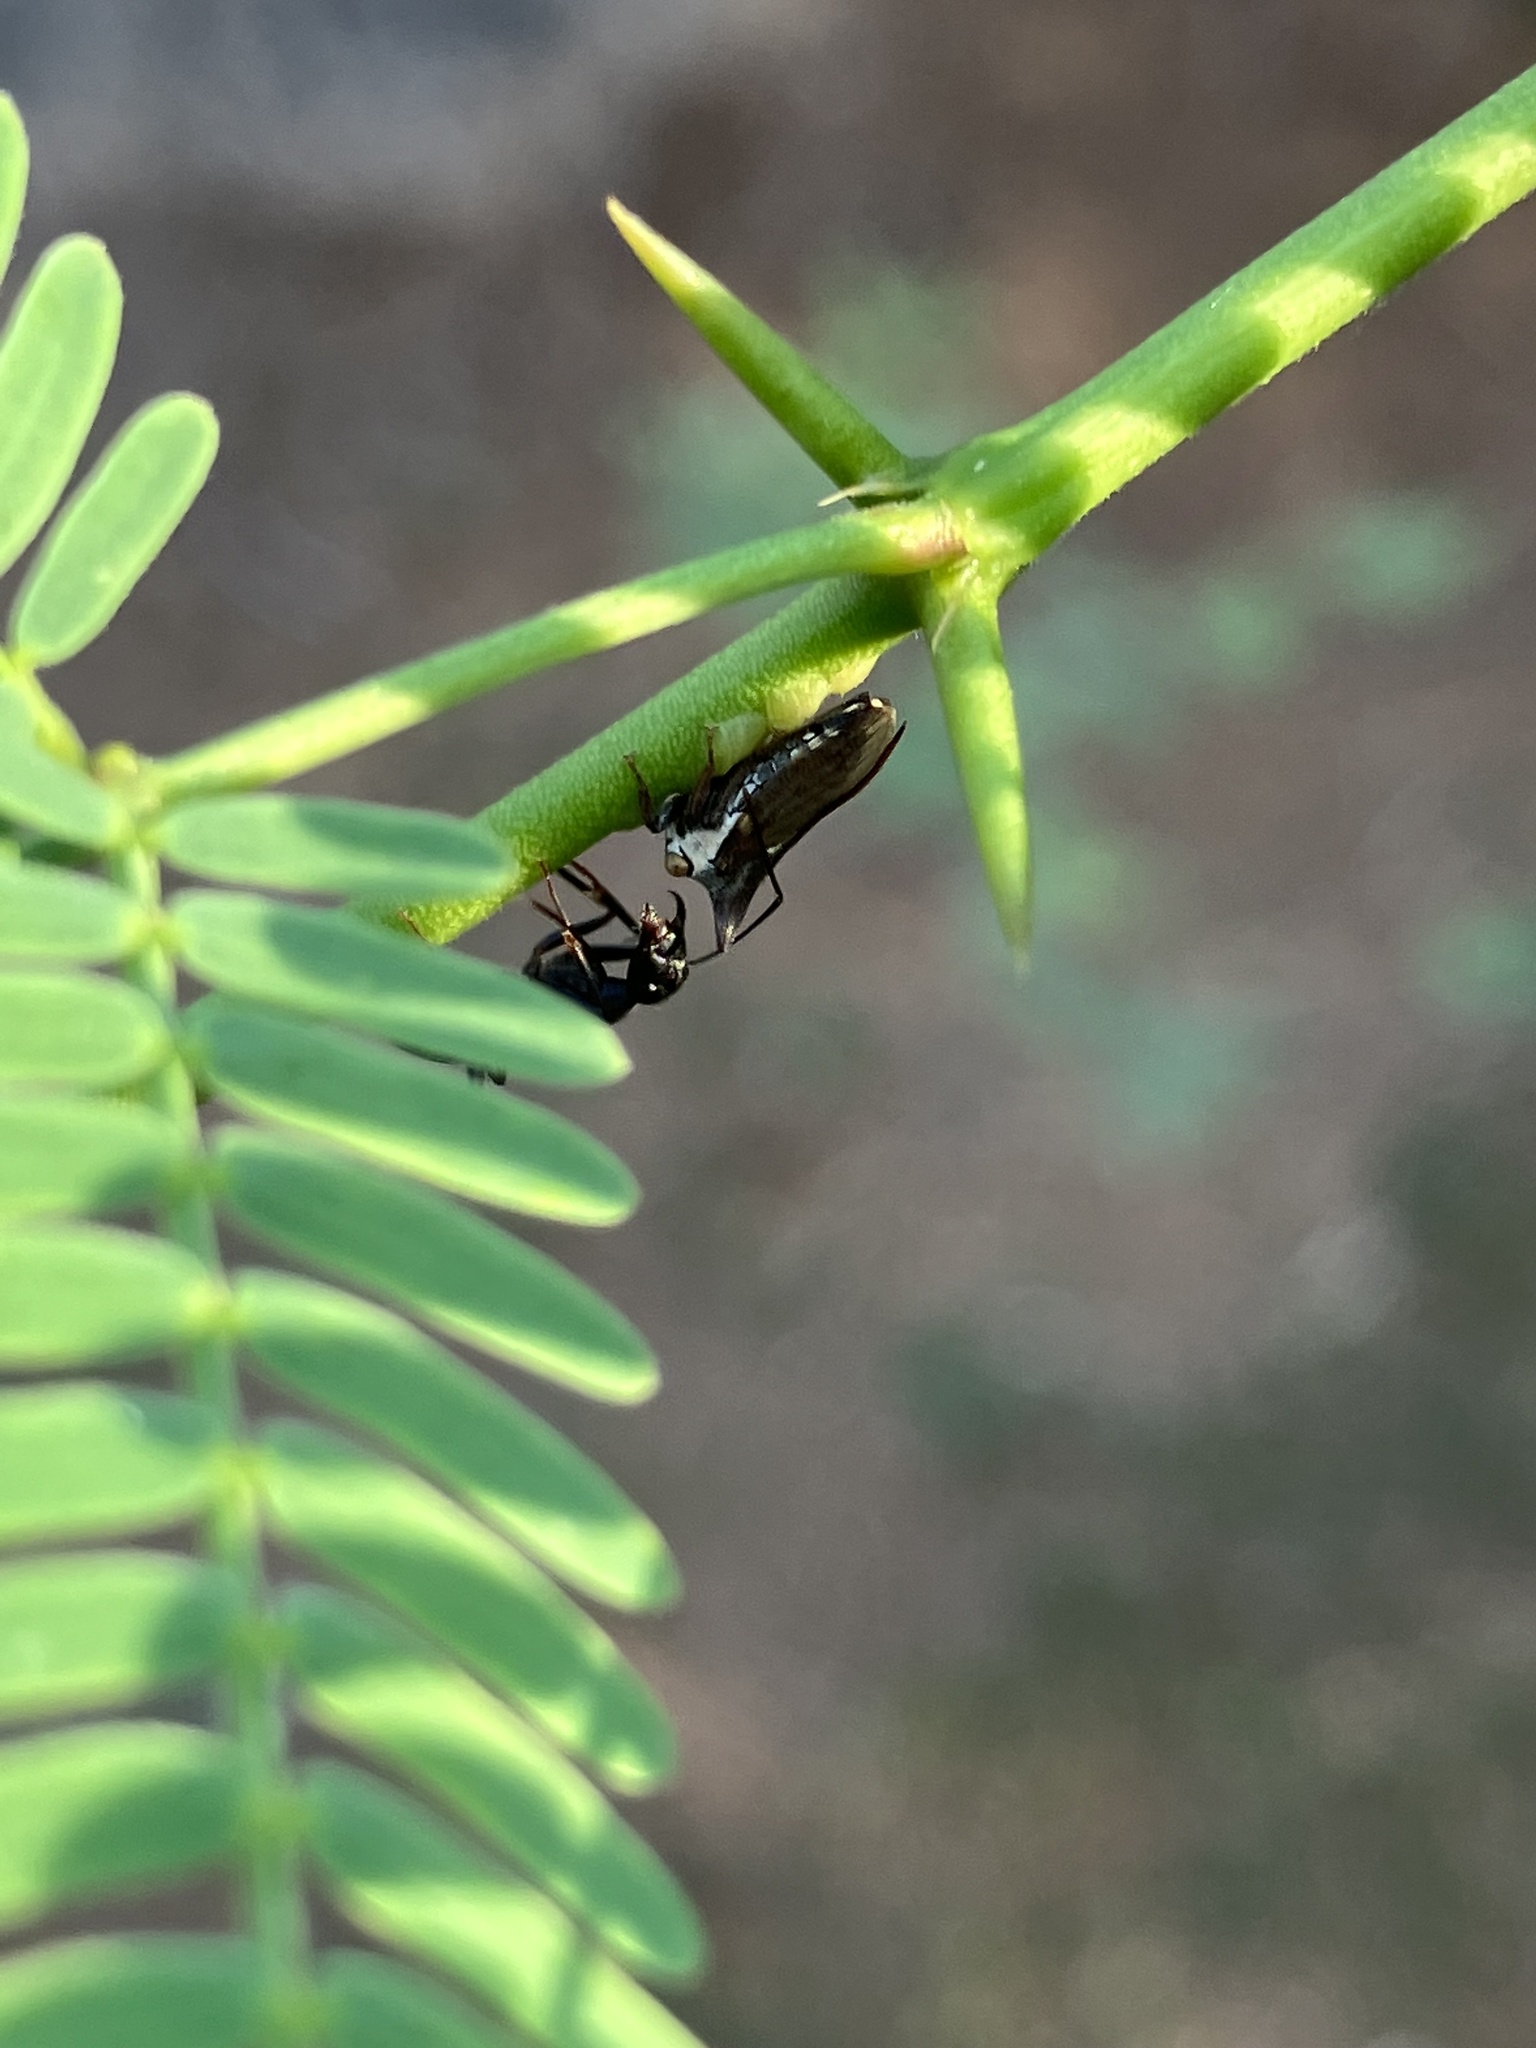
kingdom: Animalia
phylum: Arthropoda
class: Insecta
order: Hymenoptera
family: Formicidae
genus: Camponotus
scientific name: Camponotus compressus
